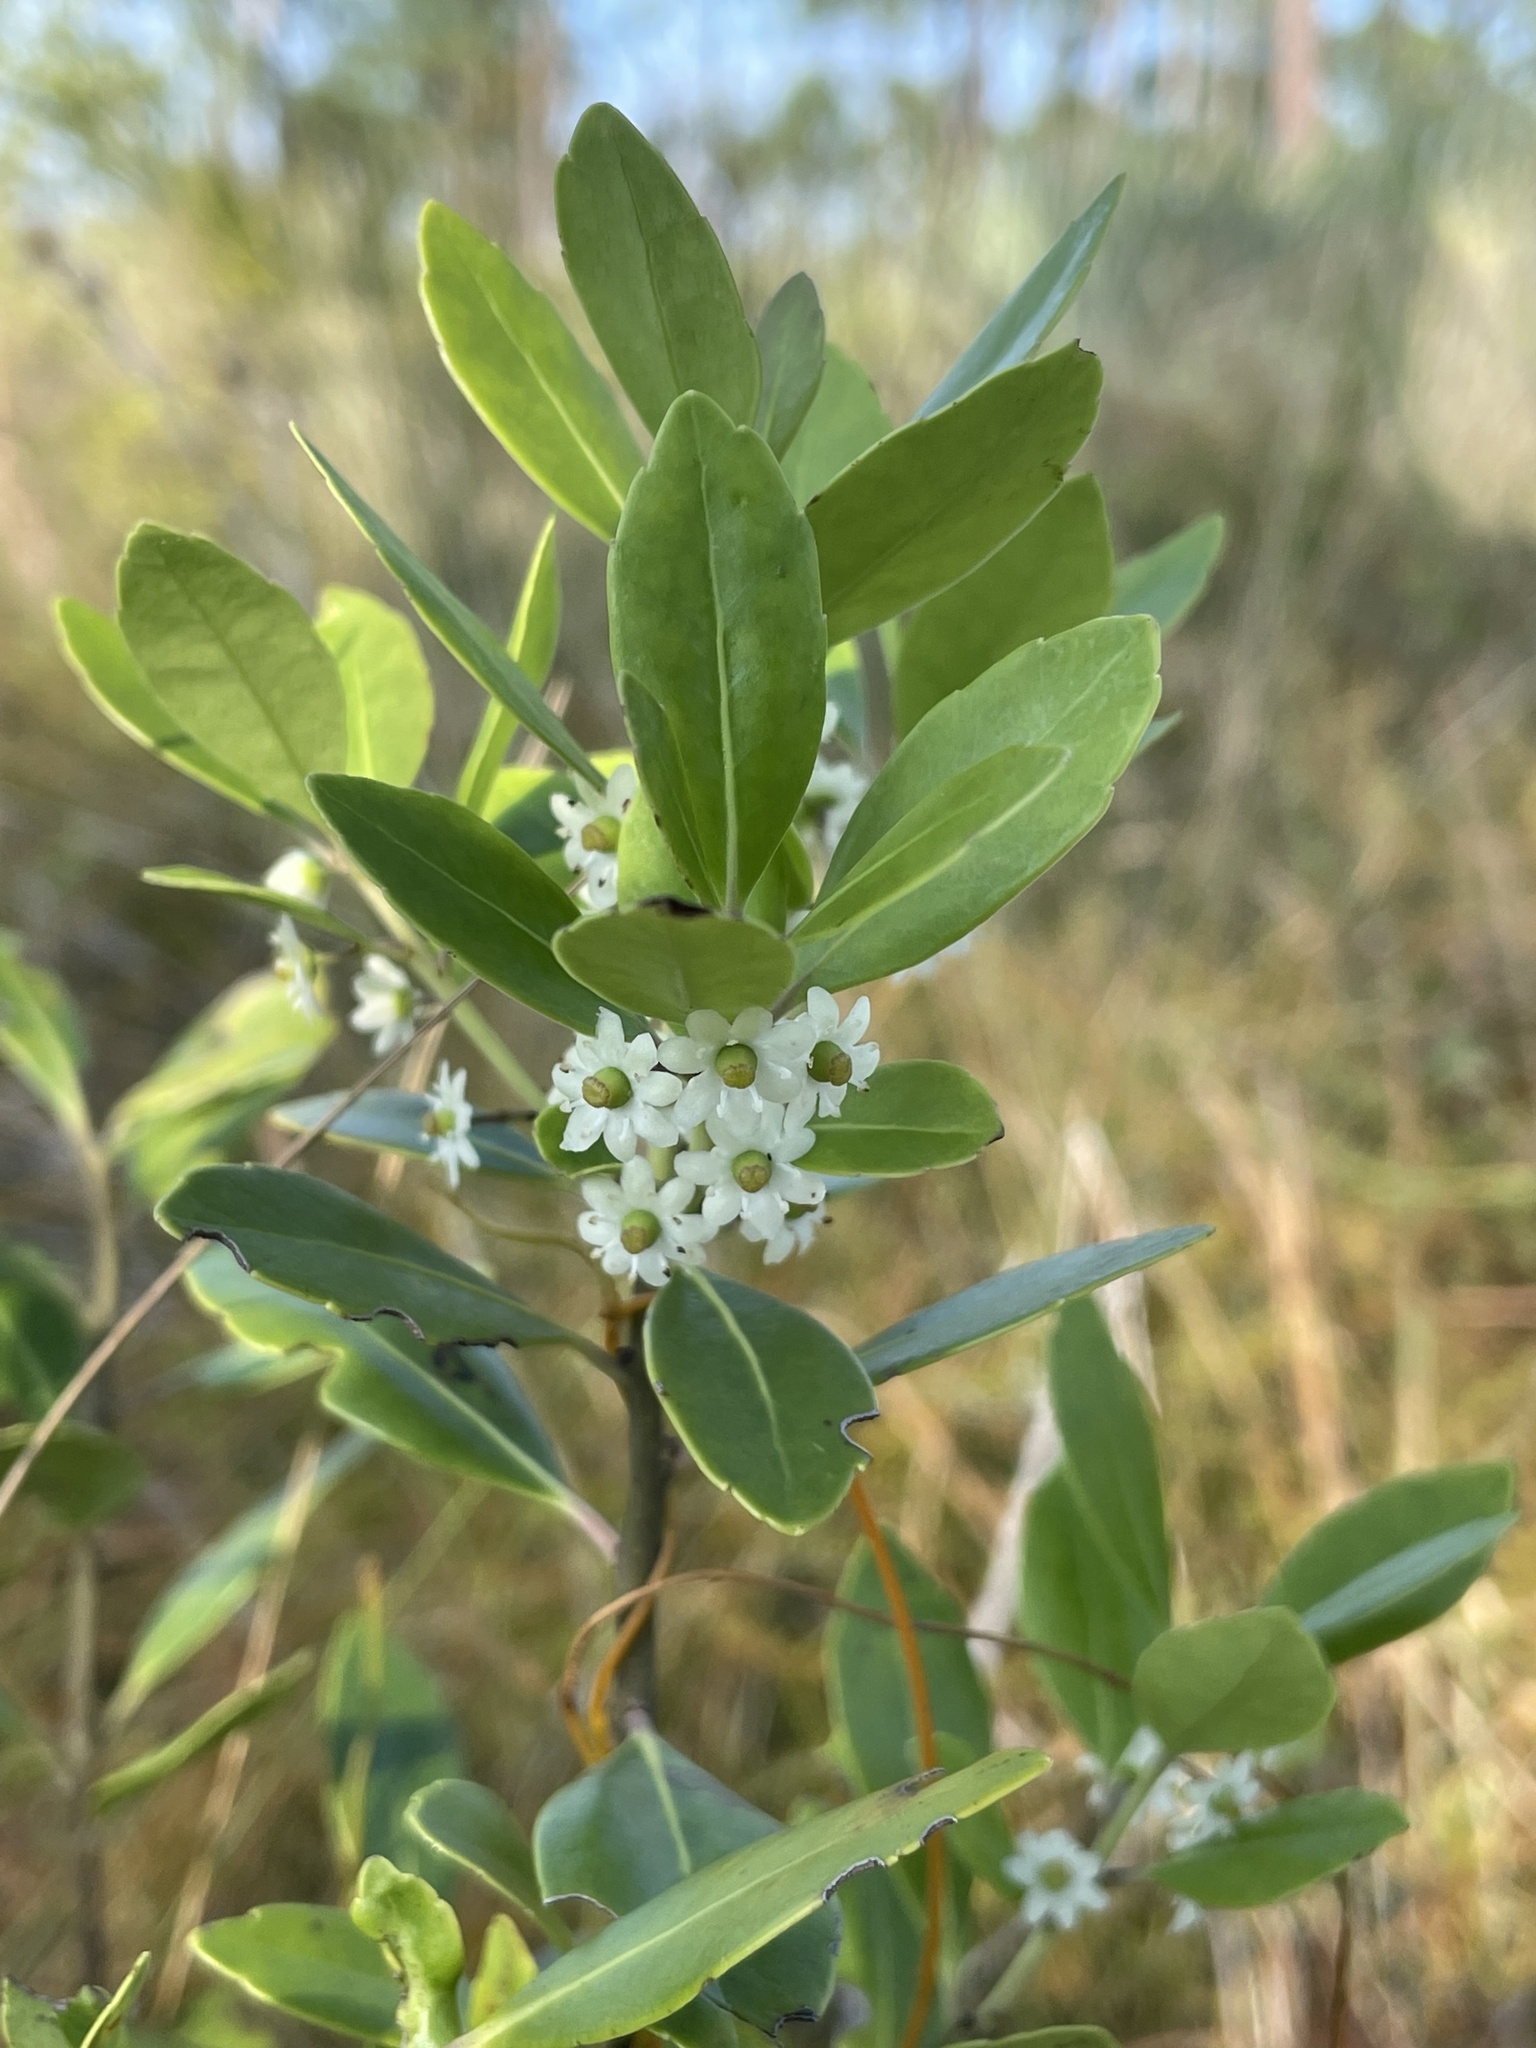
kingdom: Plantae
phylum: Tracheophyta
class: Magnoliopsida
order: Aquifoliales
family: Aquifoliaceae
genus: Ilex
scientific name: Ilex glabra
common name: Bitter gallberry
